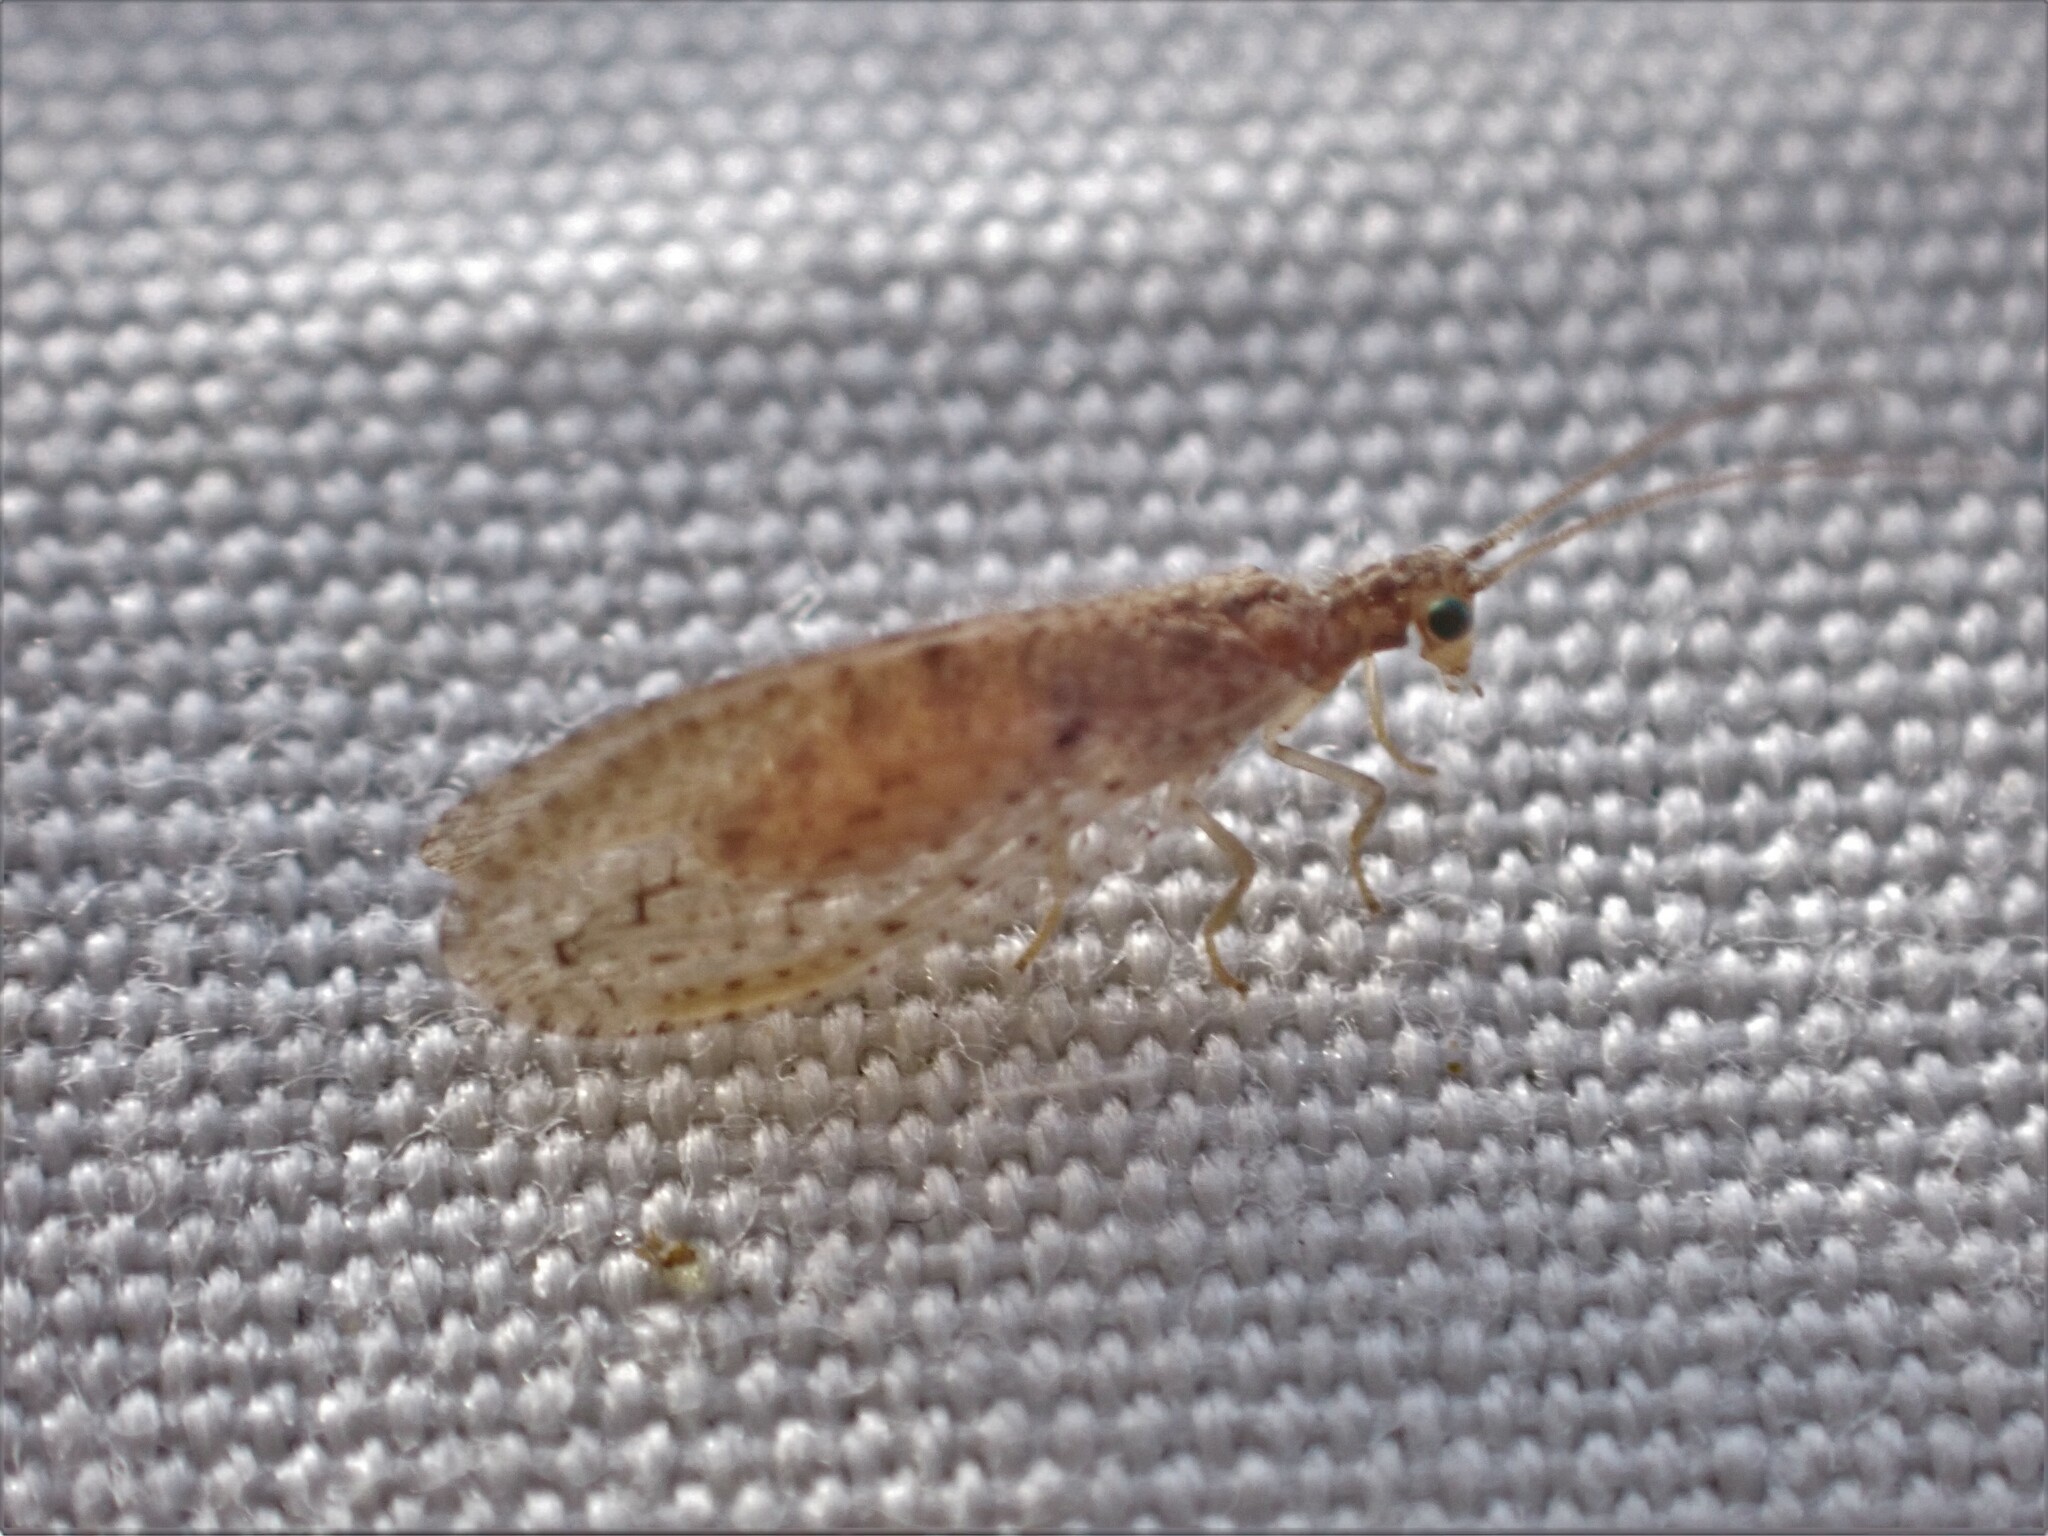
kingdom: Animalia
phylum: Arthropoda
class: Insecta
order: Neuroptera
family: Hemerobiidae
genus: Micromus
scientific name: Micromus tasmaniae
